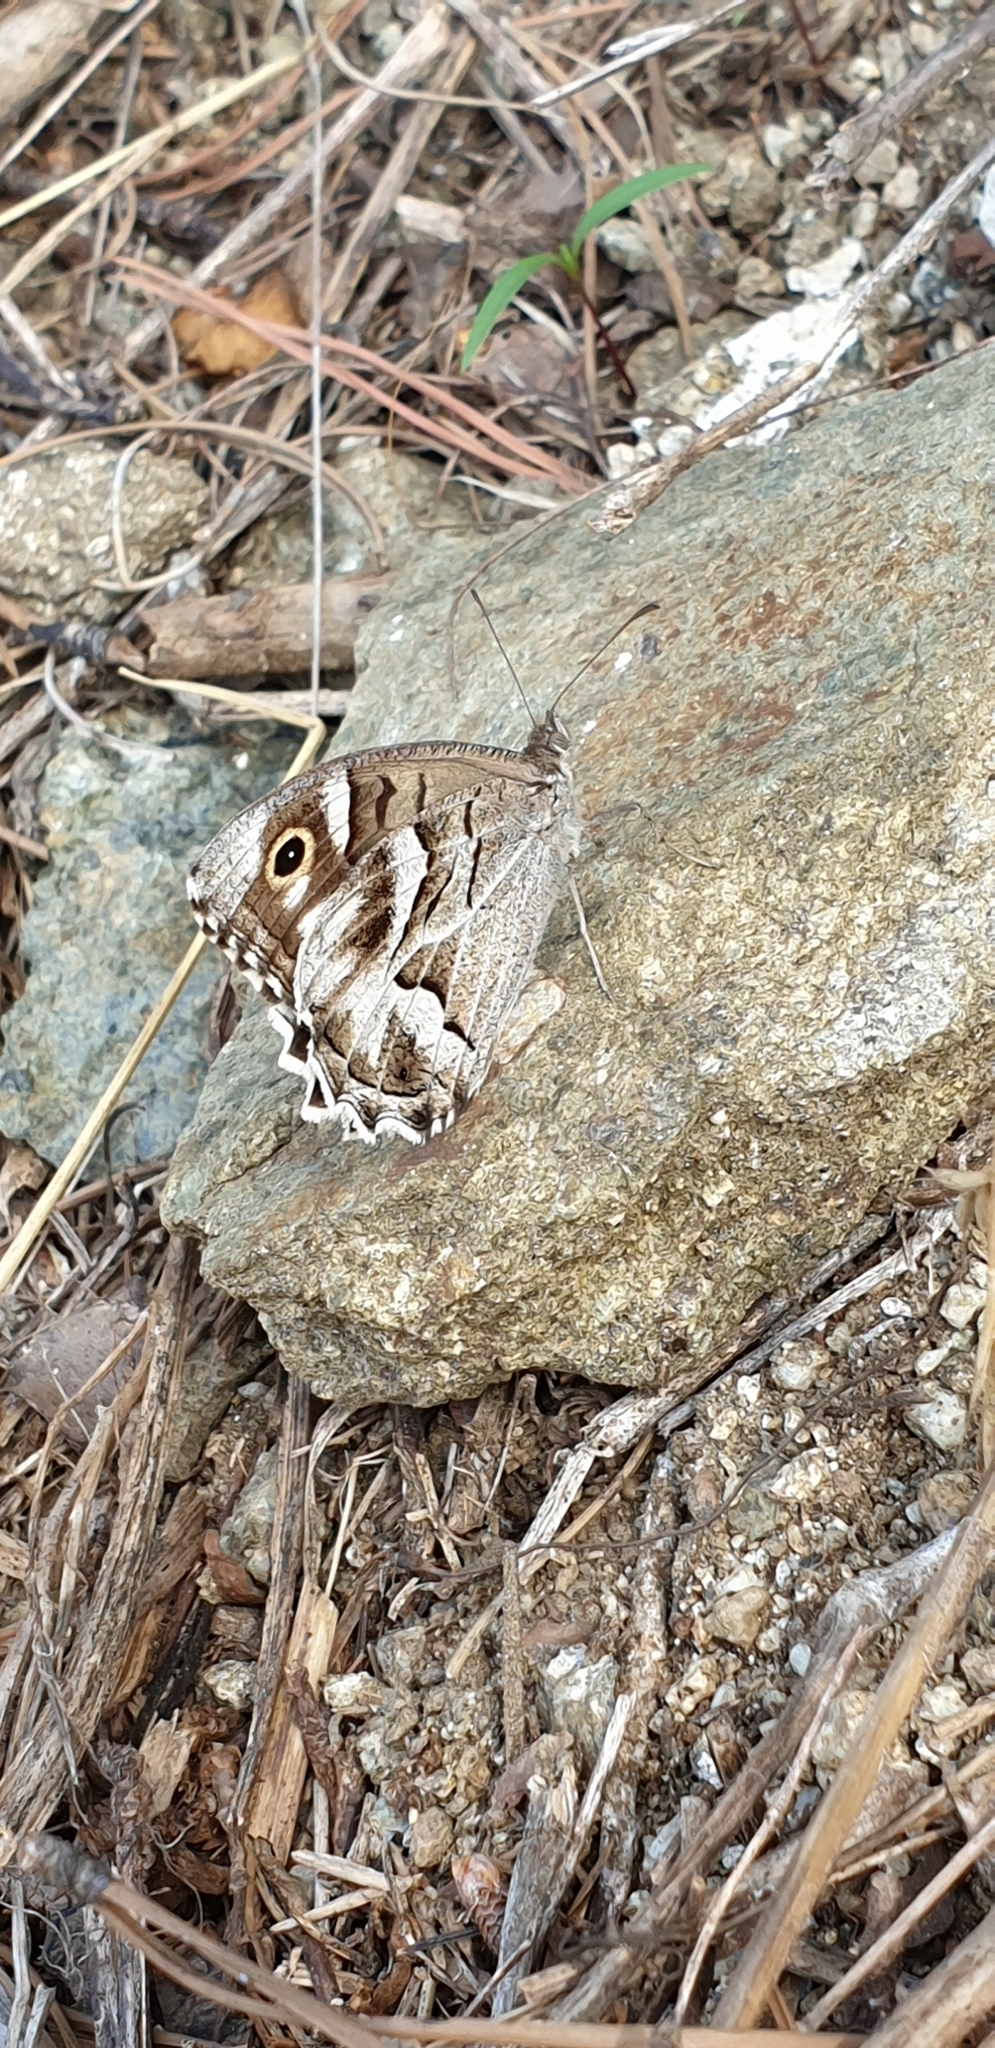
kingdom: Animalia
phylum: Arthropoda
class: Insecta
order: Lepidoptera
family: Nymphalidae
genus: Hipparchia
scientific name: Hipparchia fidia
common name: Striped grayling
